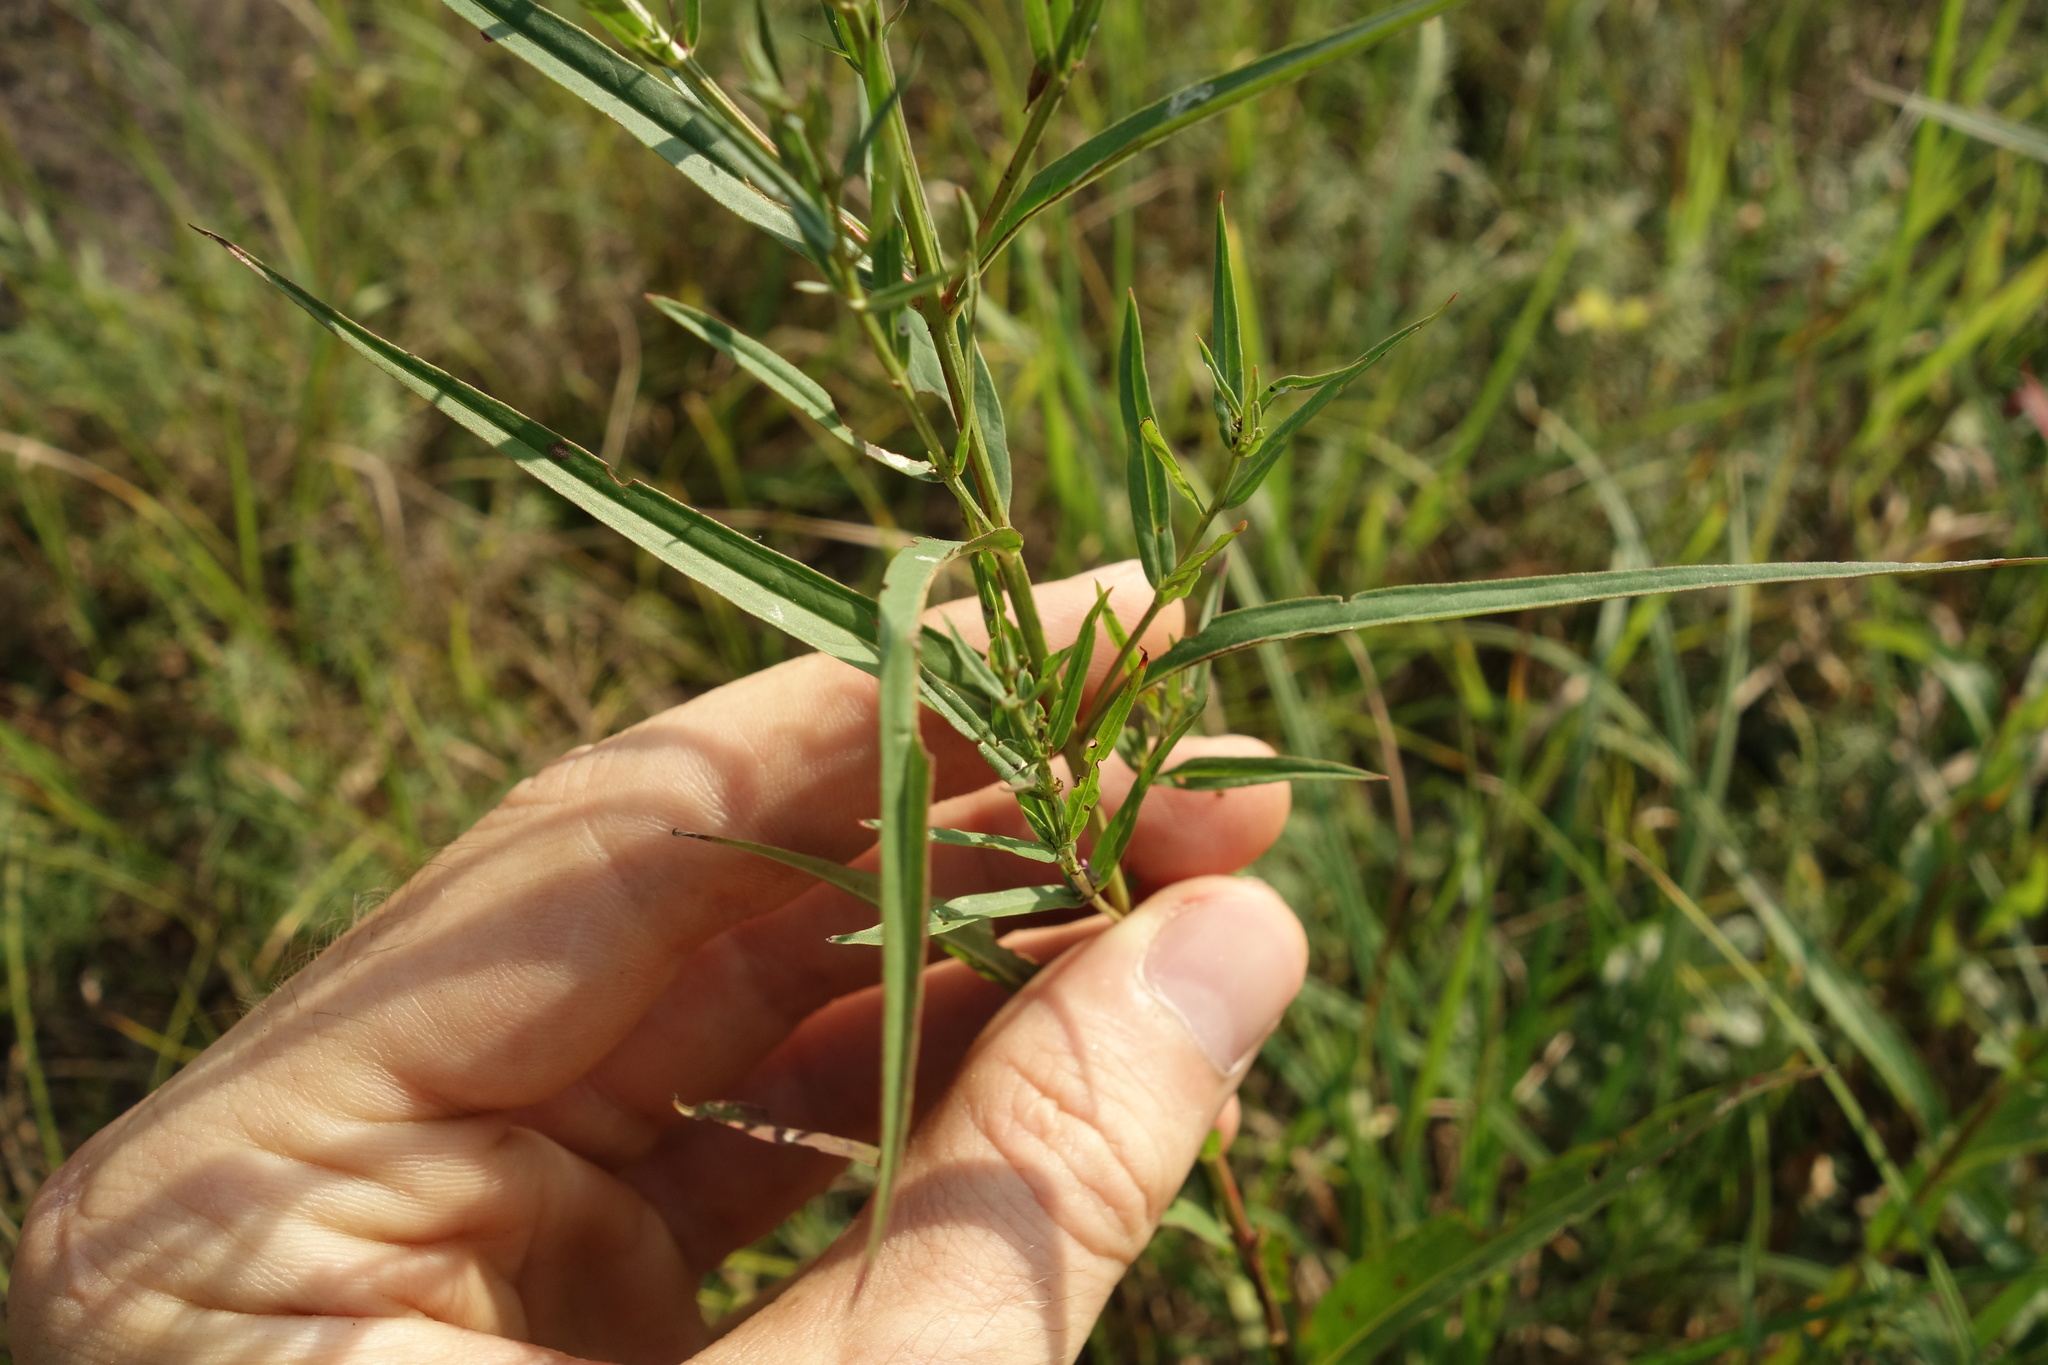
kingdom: Plantae
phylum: Tracheophyta
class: Magnoliopsida
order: Myrtales
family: Lythraceae
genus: Lythrum
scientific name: Lythrum virgatum
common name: European wand loosestrife
